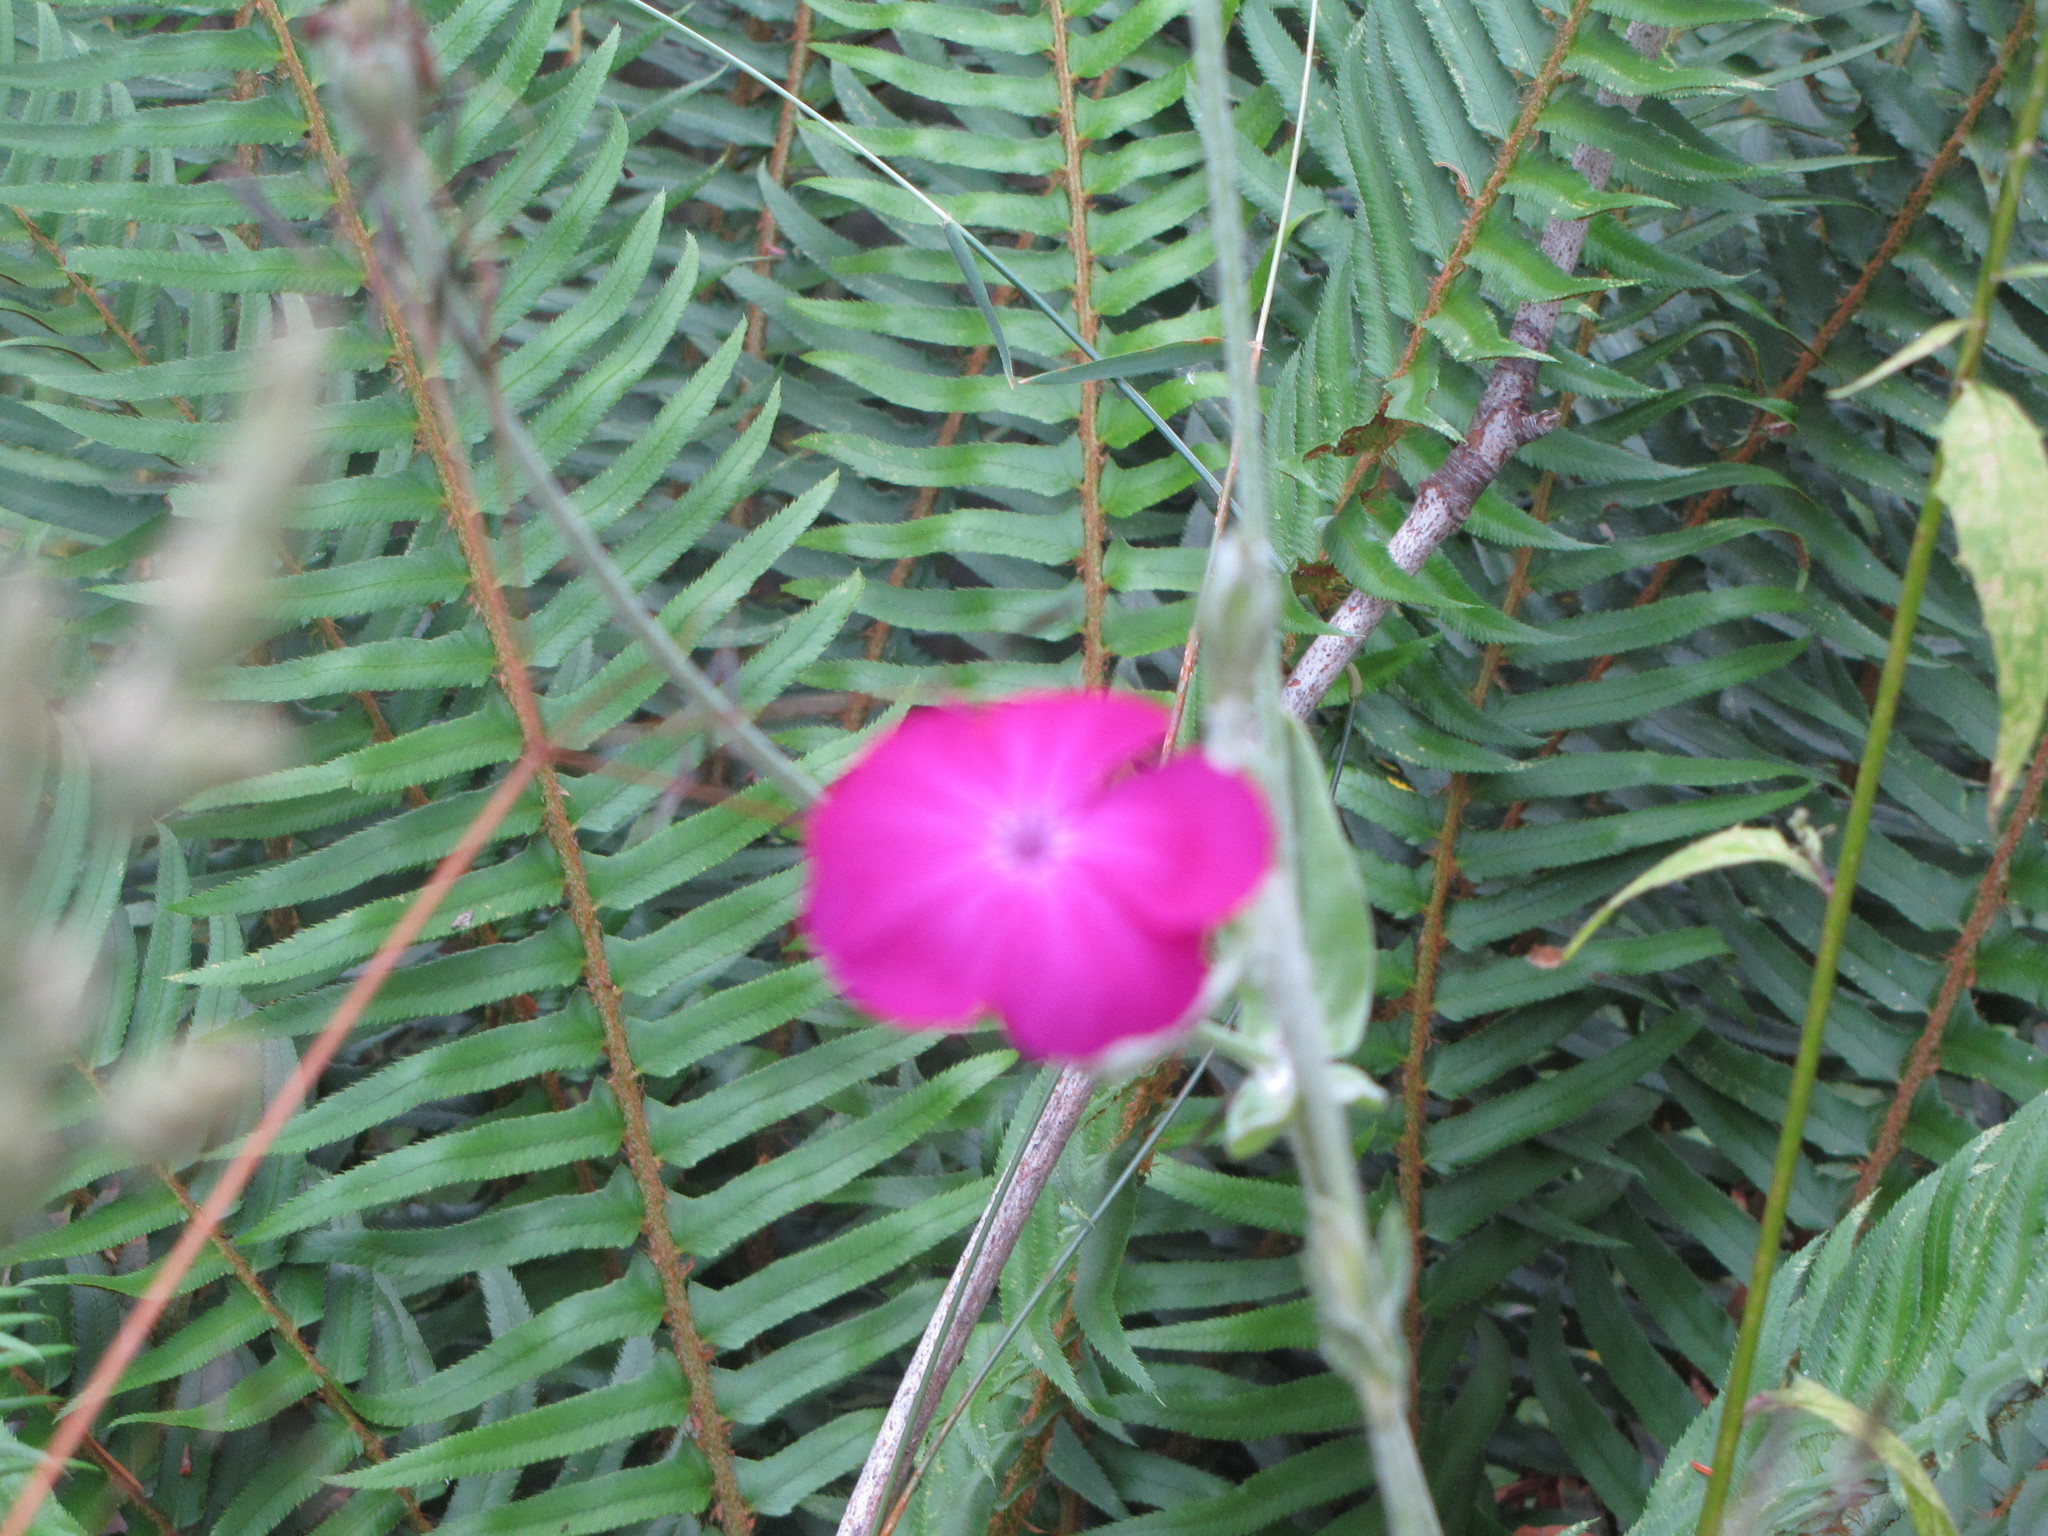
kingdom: Plantae
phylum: Tracheophyta
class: Magnoliopsida
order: Caryophyllales
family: Caryophyllaceae
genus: Silene
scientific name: Silene coronaria
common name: Rose campion
